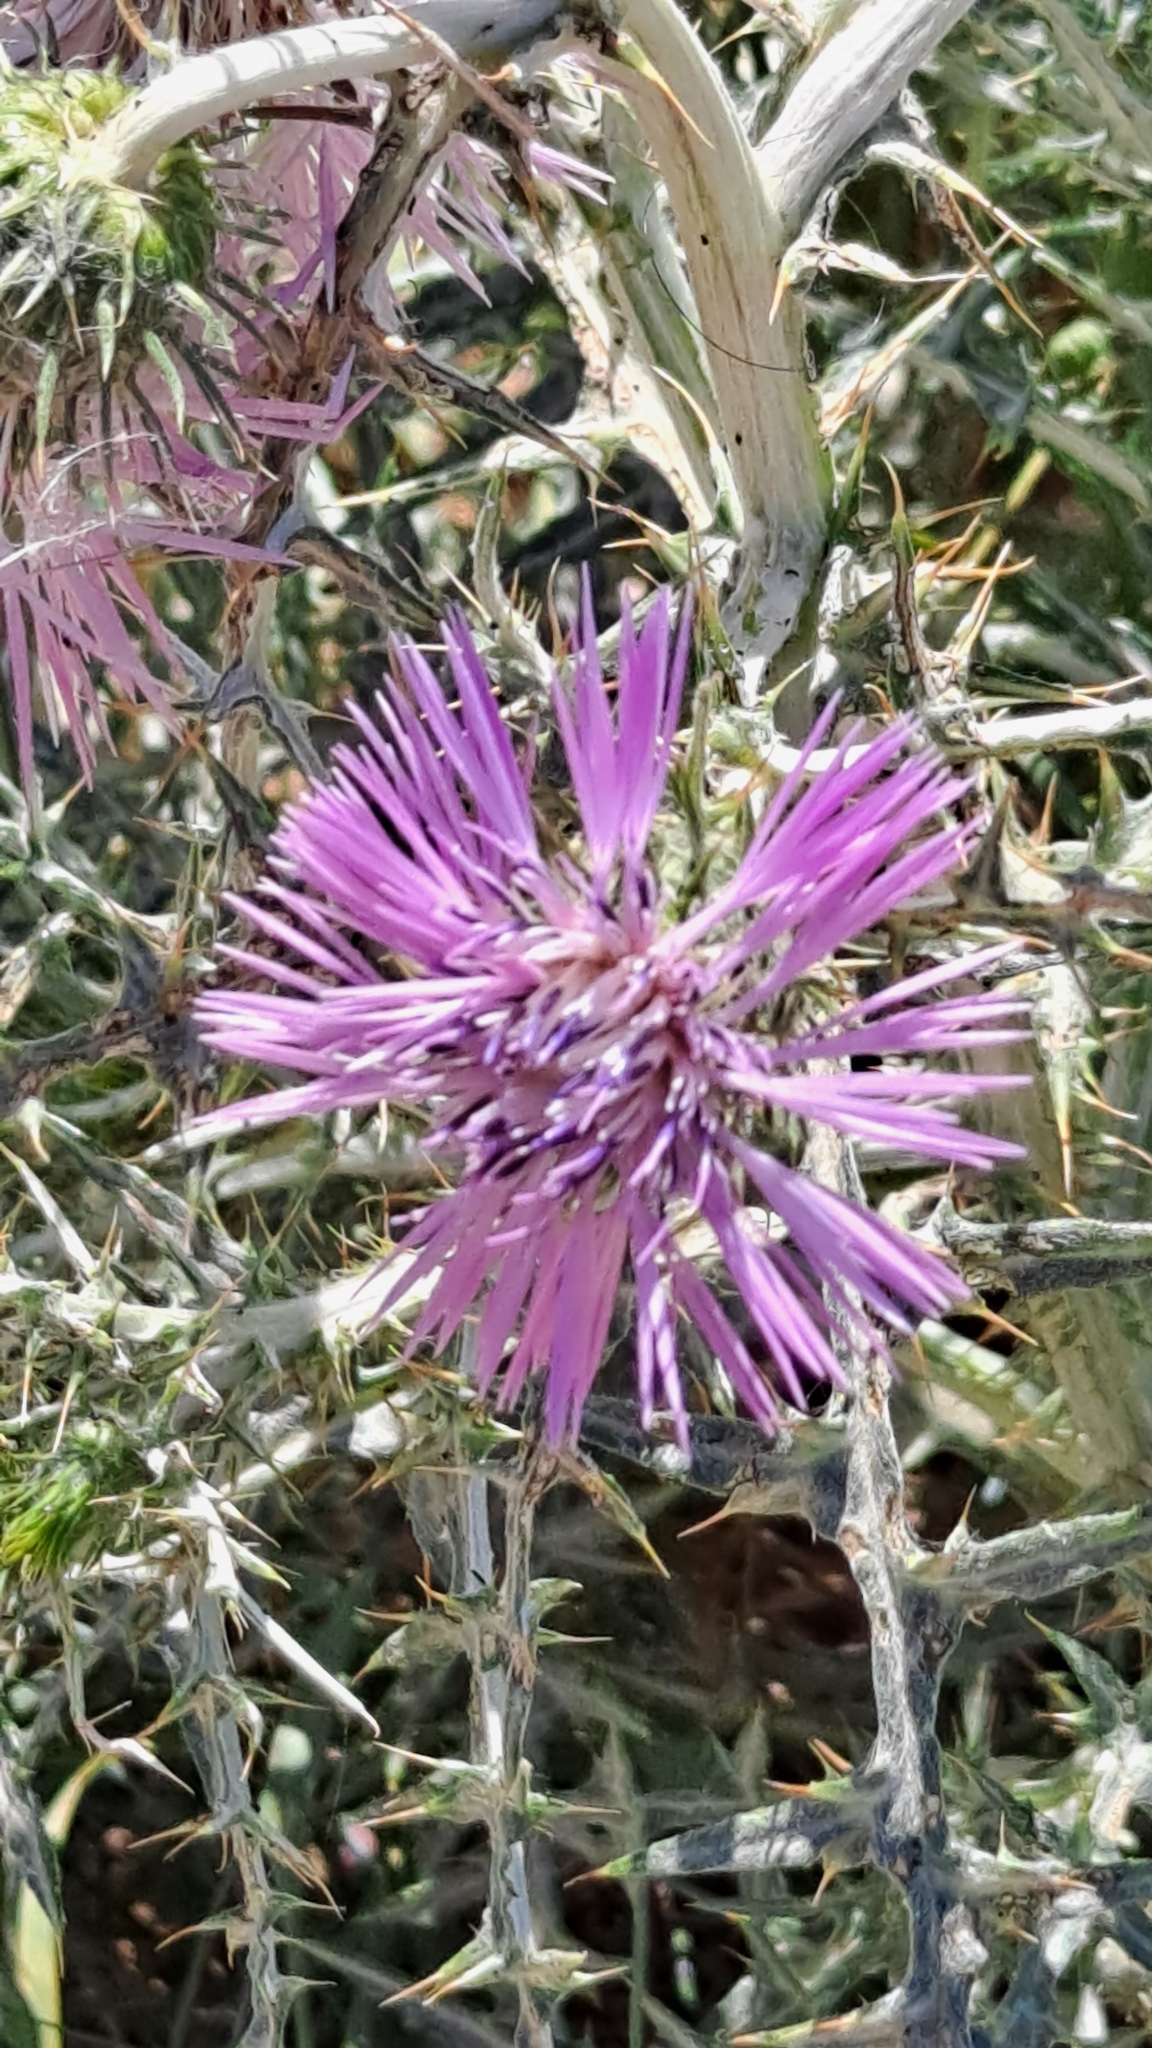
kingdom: Plantae
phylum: Tracheophyta
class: Magnoliopsida
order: Asterales
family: Asteraceae
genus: Galactites
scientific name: Galactites tomentosa
